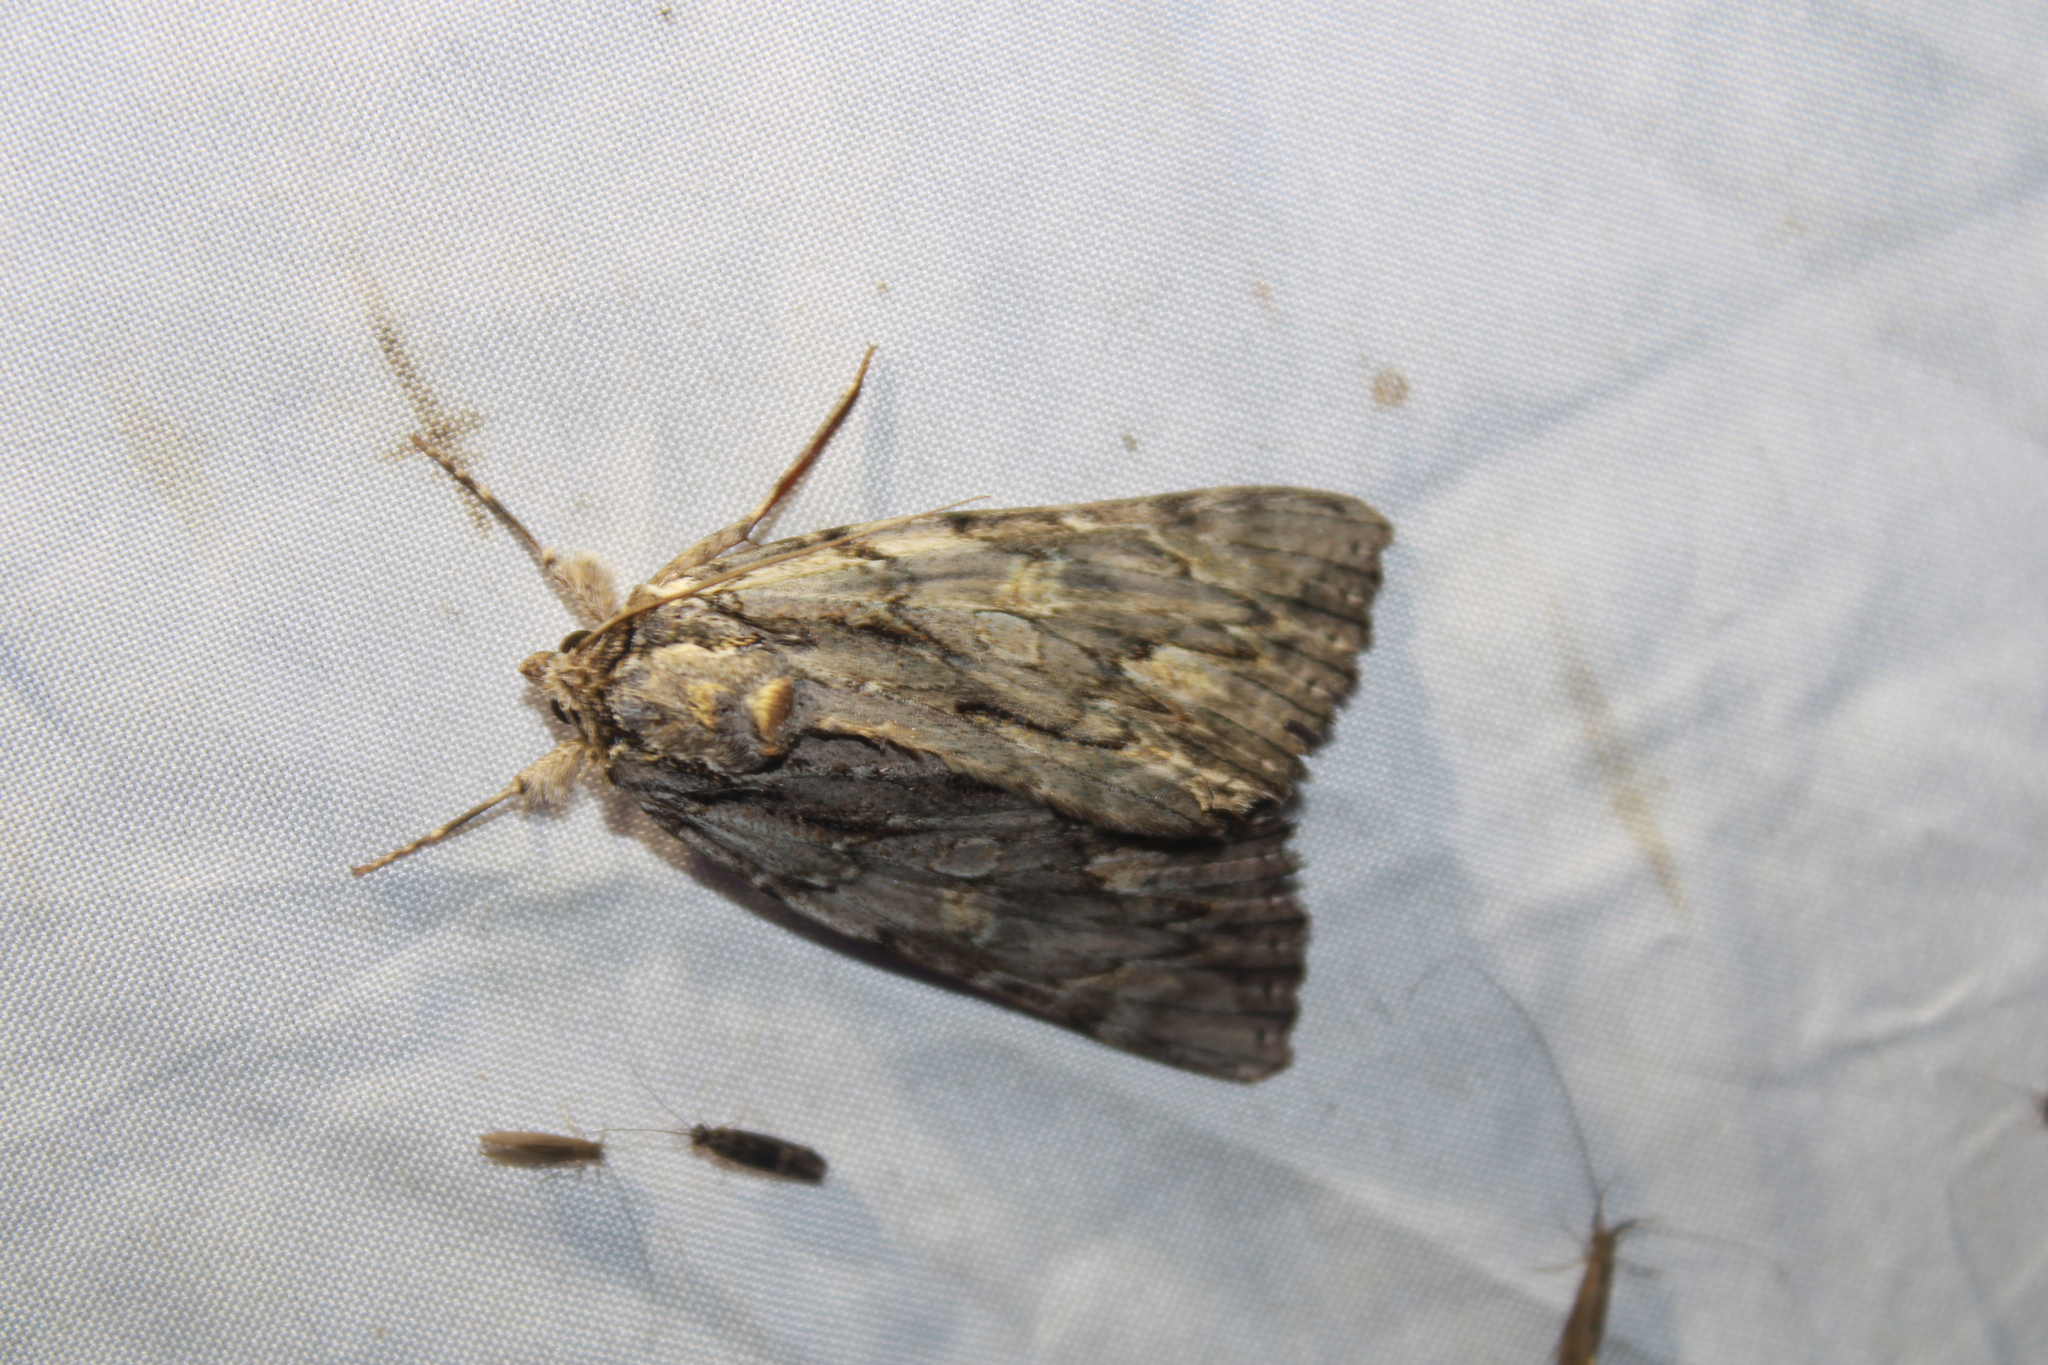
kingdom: Animalia
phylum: Arthropoda
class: Insecta
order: Lepidoptera
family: Erebidae
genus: Catocala
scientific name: Catocala coccinata
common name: Scarlet underwing
